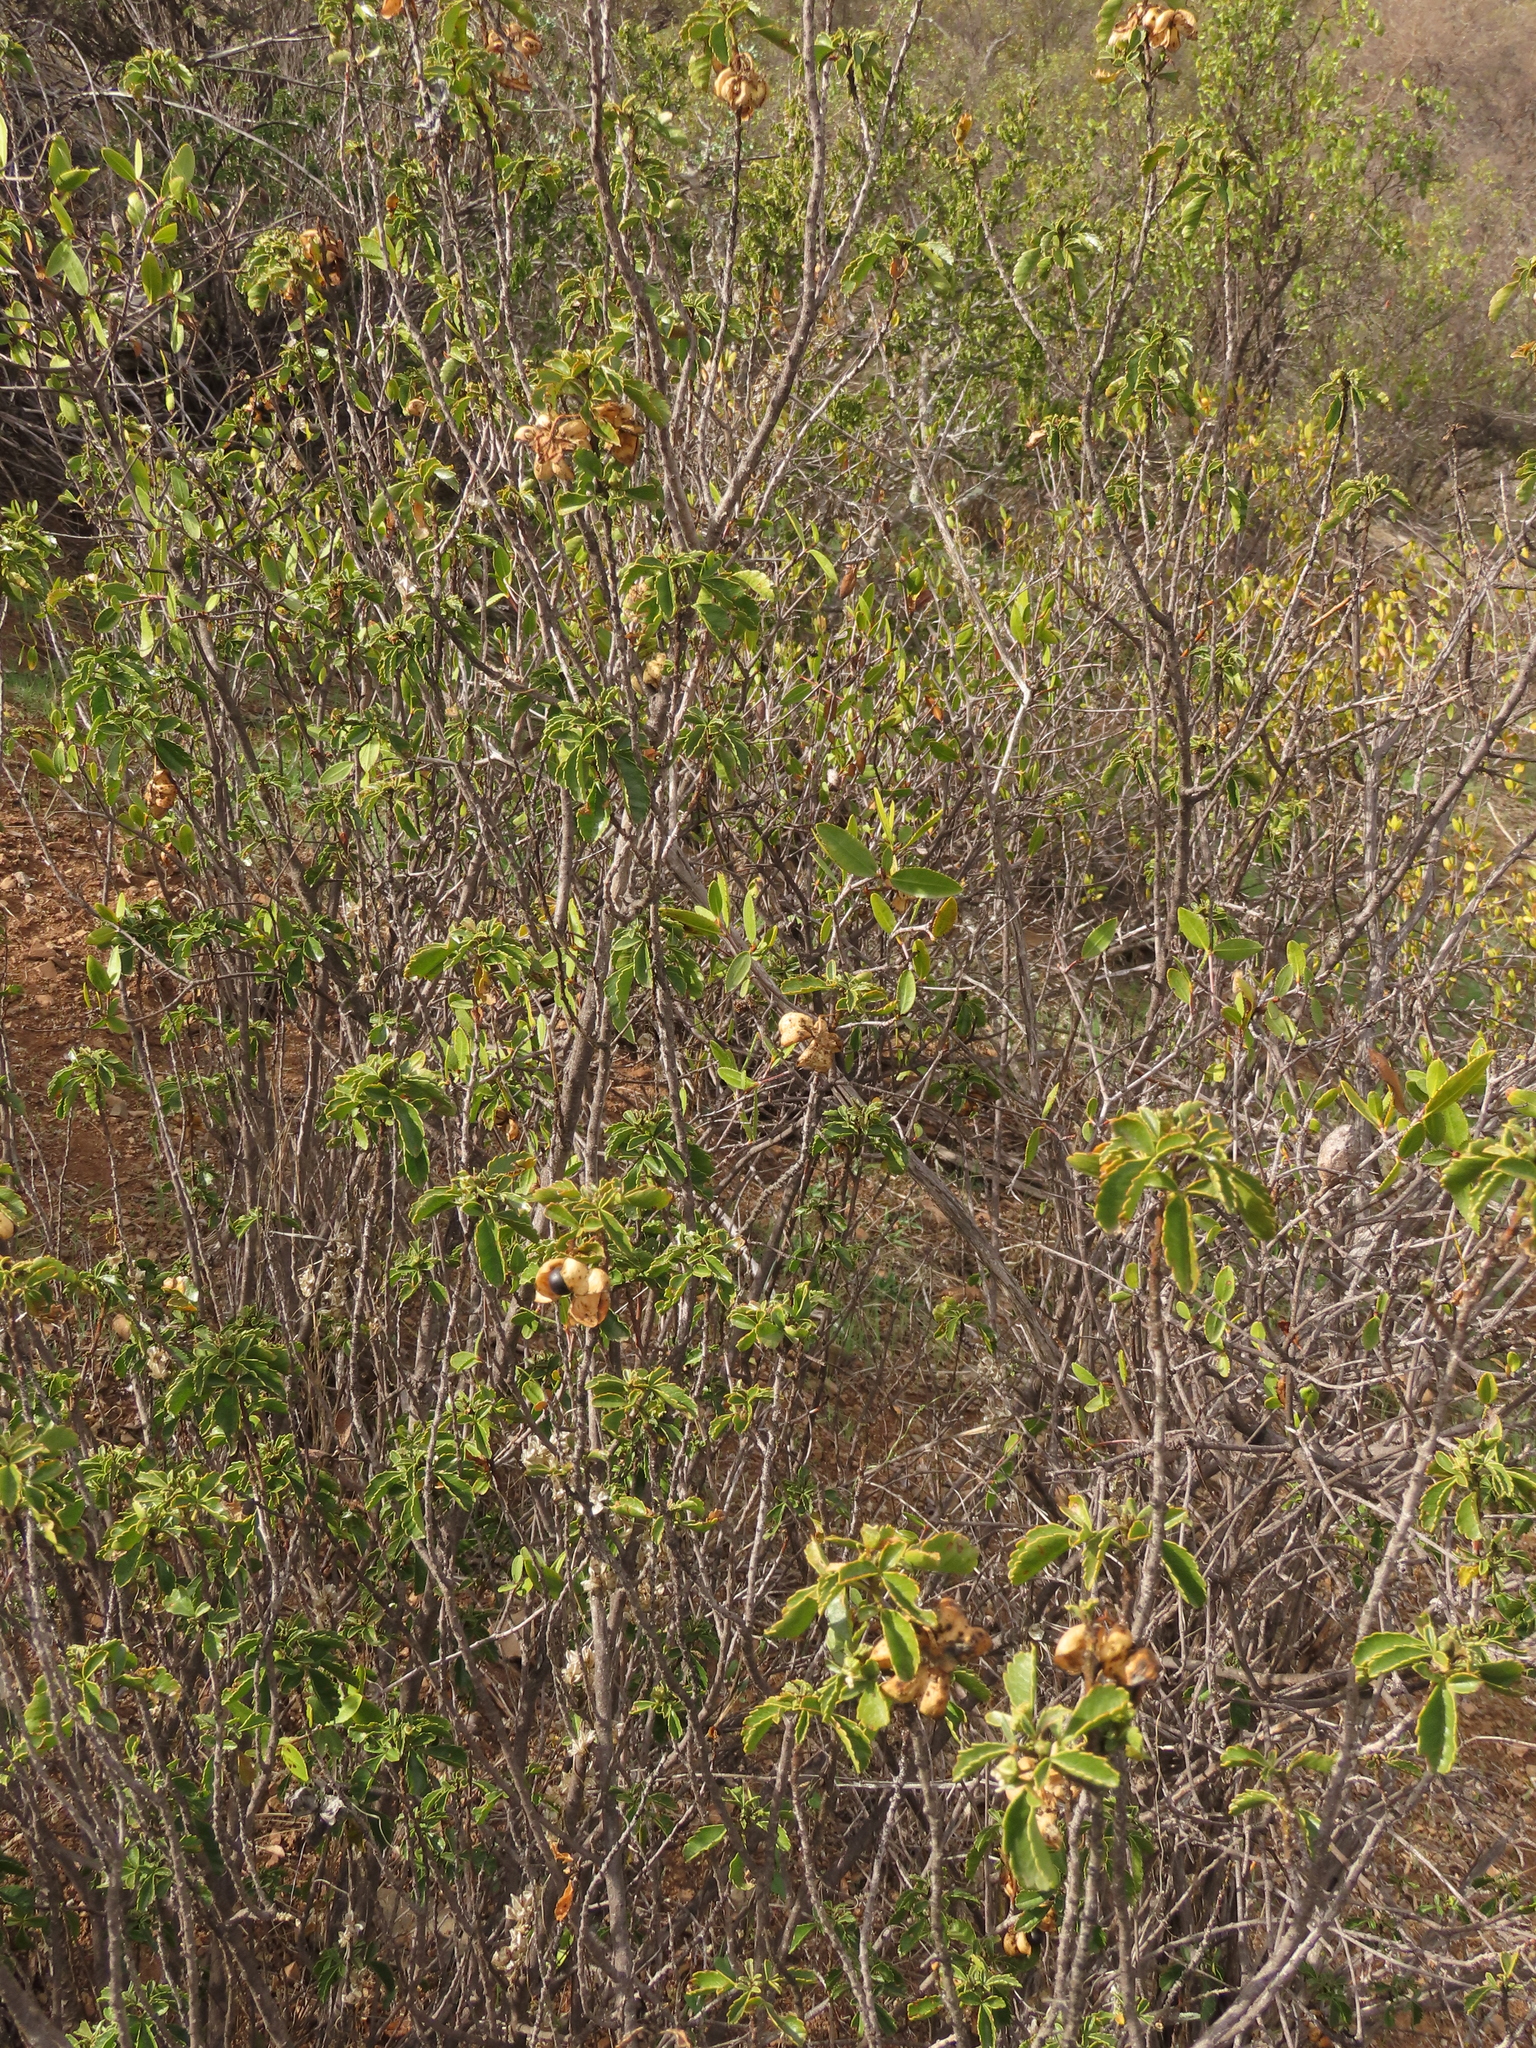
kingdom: Plantae
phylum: Tracheophyta
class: Magnoliopsida
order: Sapindales
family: Sapindaceae
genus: Llagunoa
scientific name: Llagunoa glandulosa
